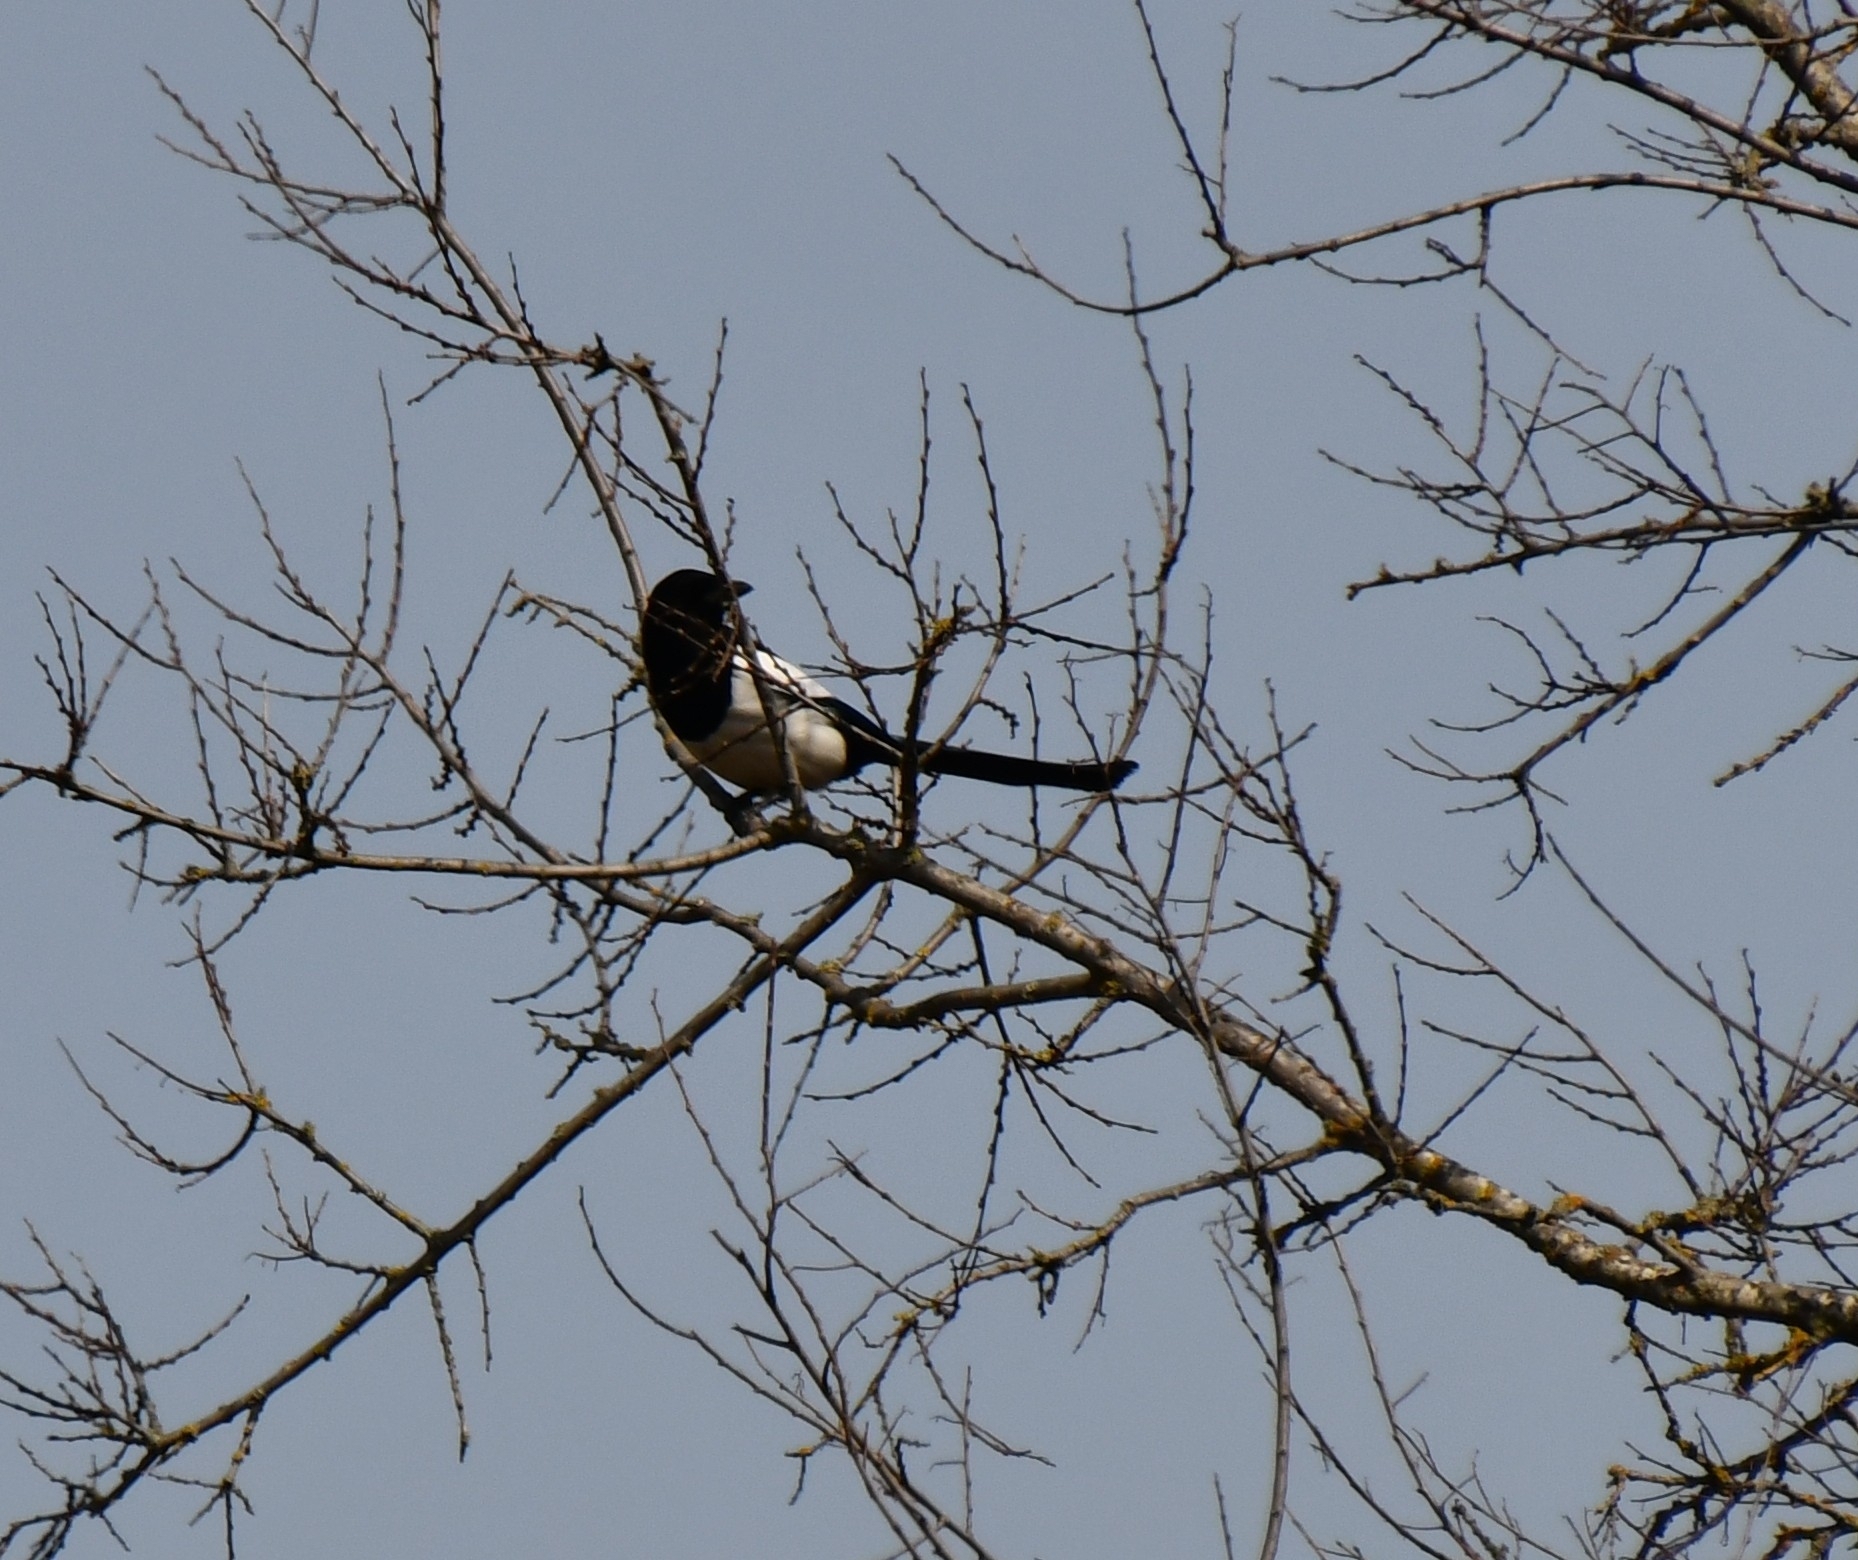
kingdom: Animalia
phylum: Chordata
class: Aves
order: Passeriformes
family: Corvidae
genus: Pica
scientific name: Pica pica
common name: Eurasian magpie
